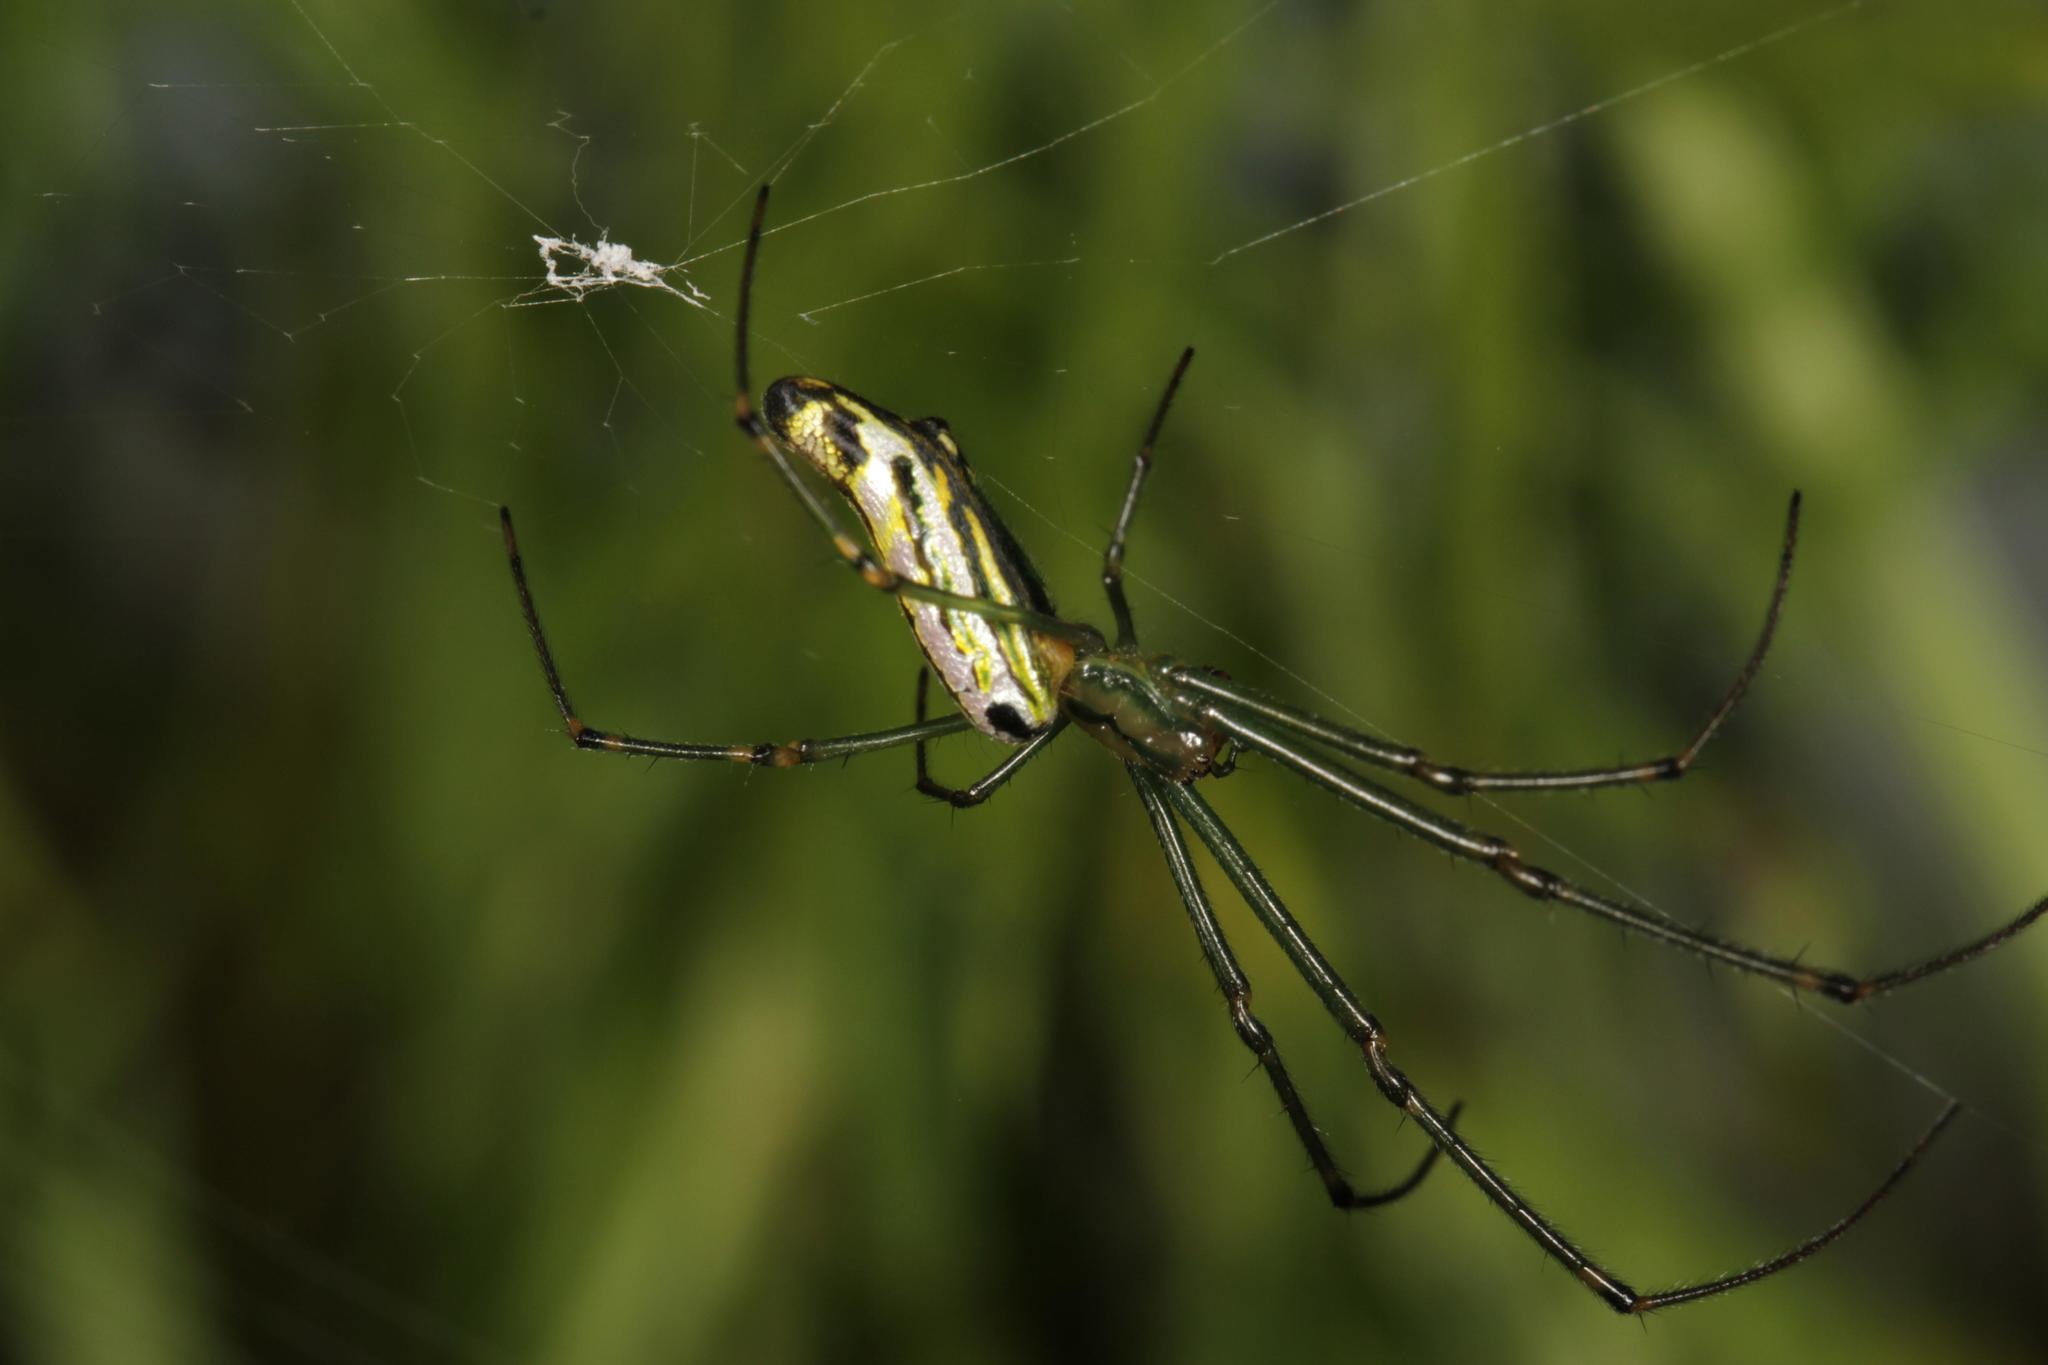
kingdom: Animalia
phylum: Arthropoda
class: Arachnida
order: Araneae
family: Tetragnathidae
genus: Leucauge
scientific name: Leucauge kibonotensis
